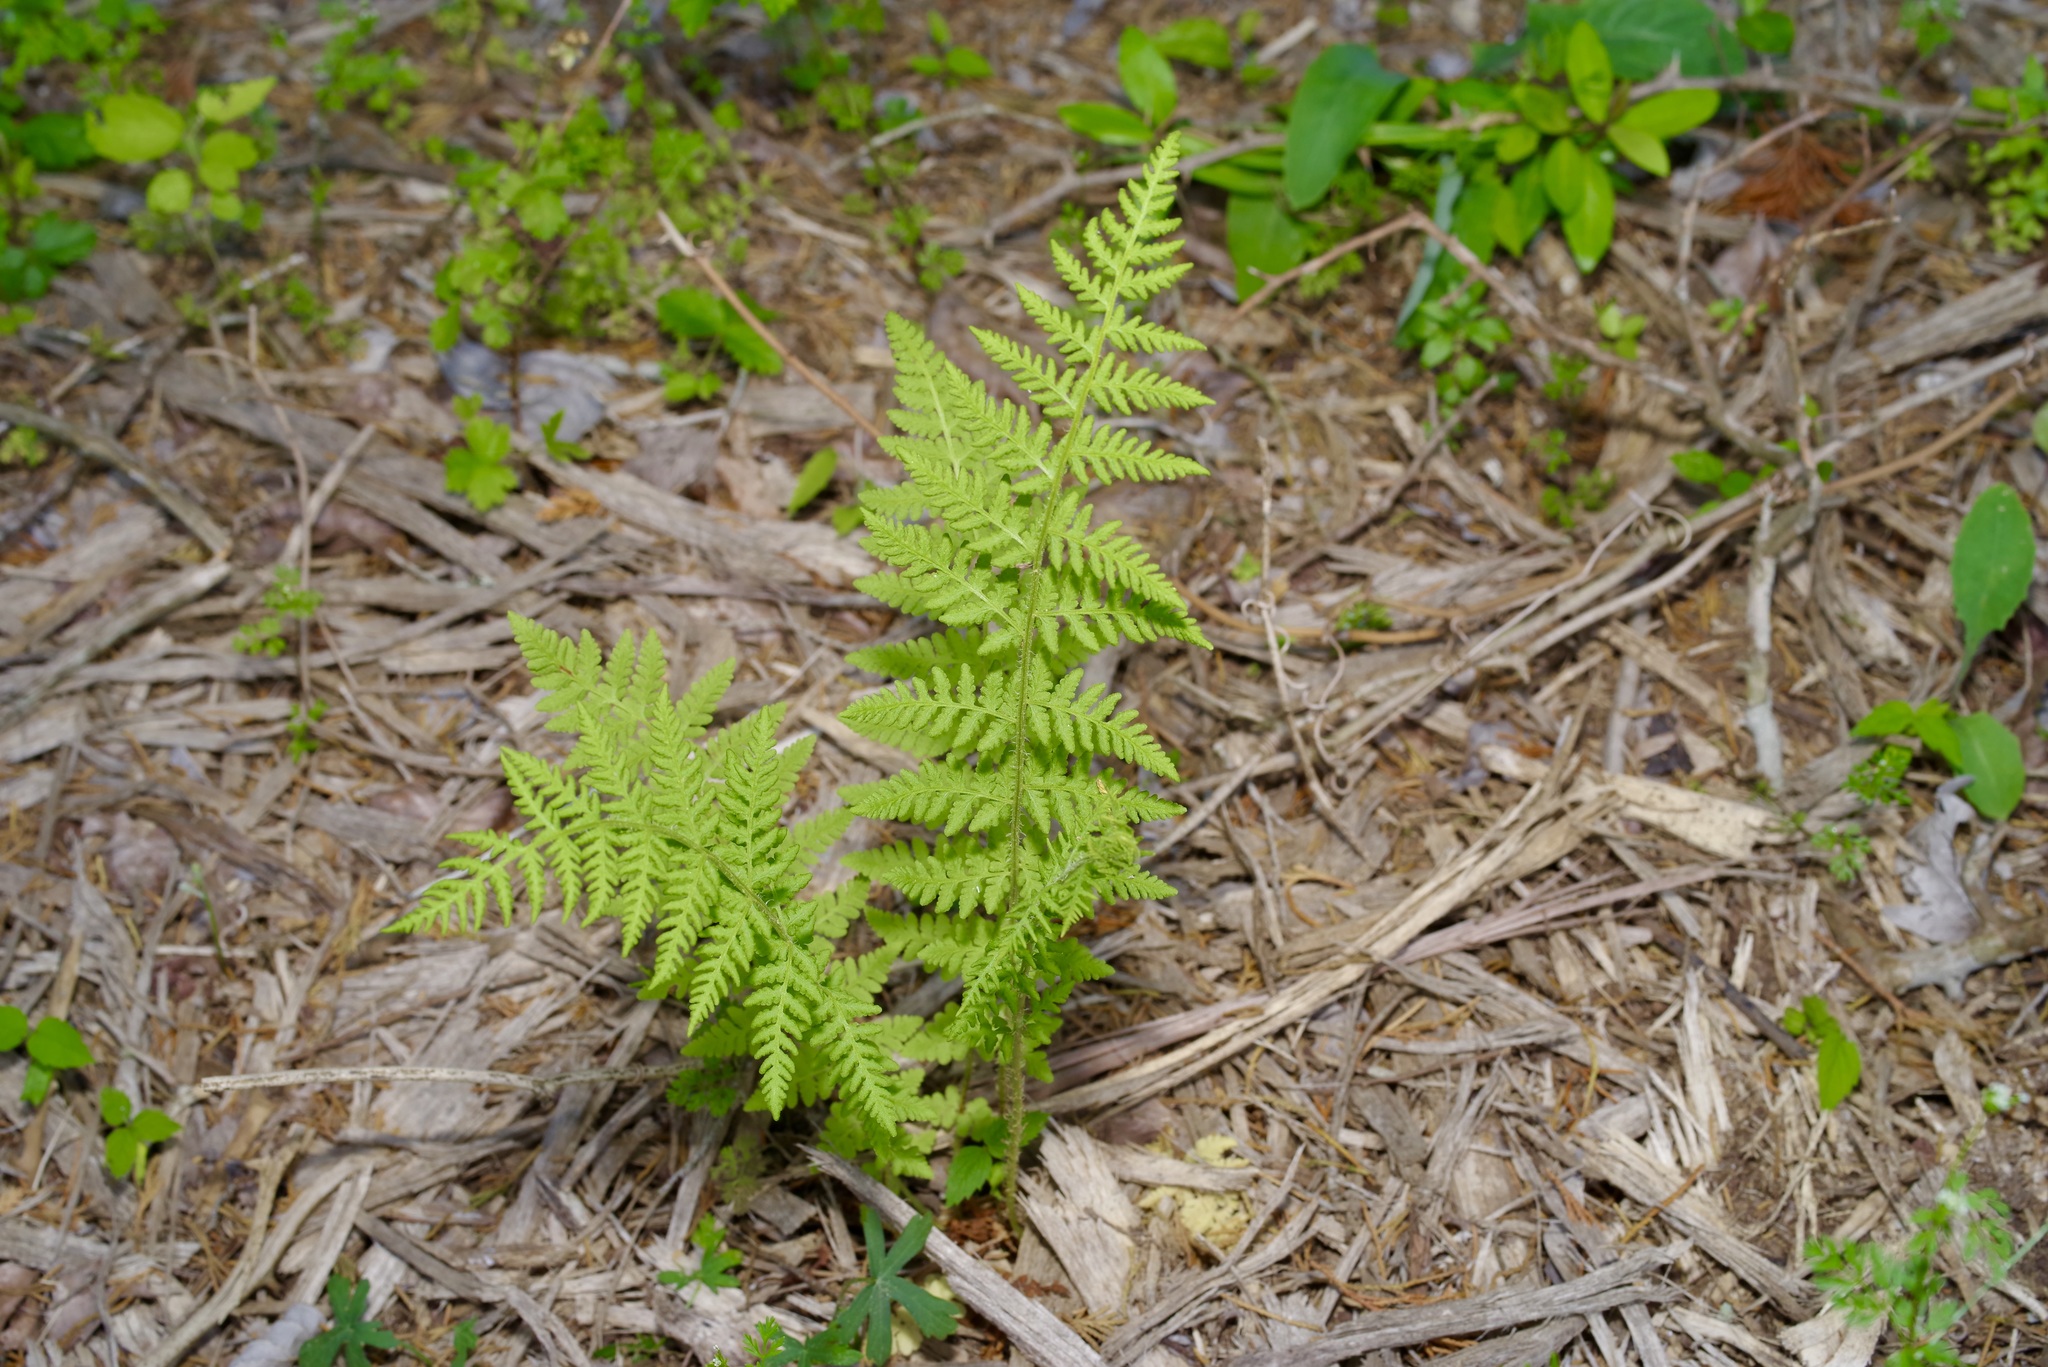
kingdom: Plantae
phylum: Tracheophyta
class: Polypodiopsida
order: Polypodiales
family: Woodsiaceae
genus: Physematium
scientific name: Physematium obtusum
